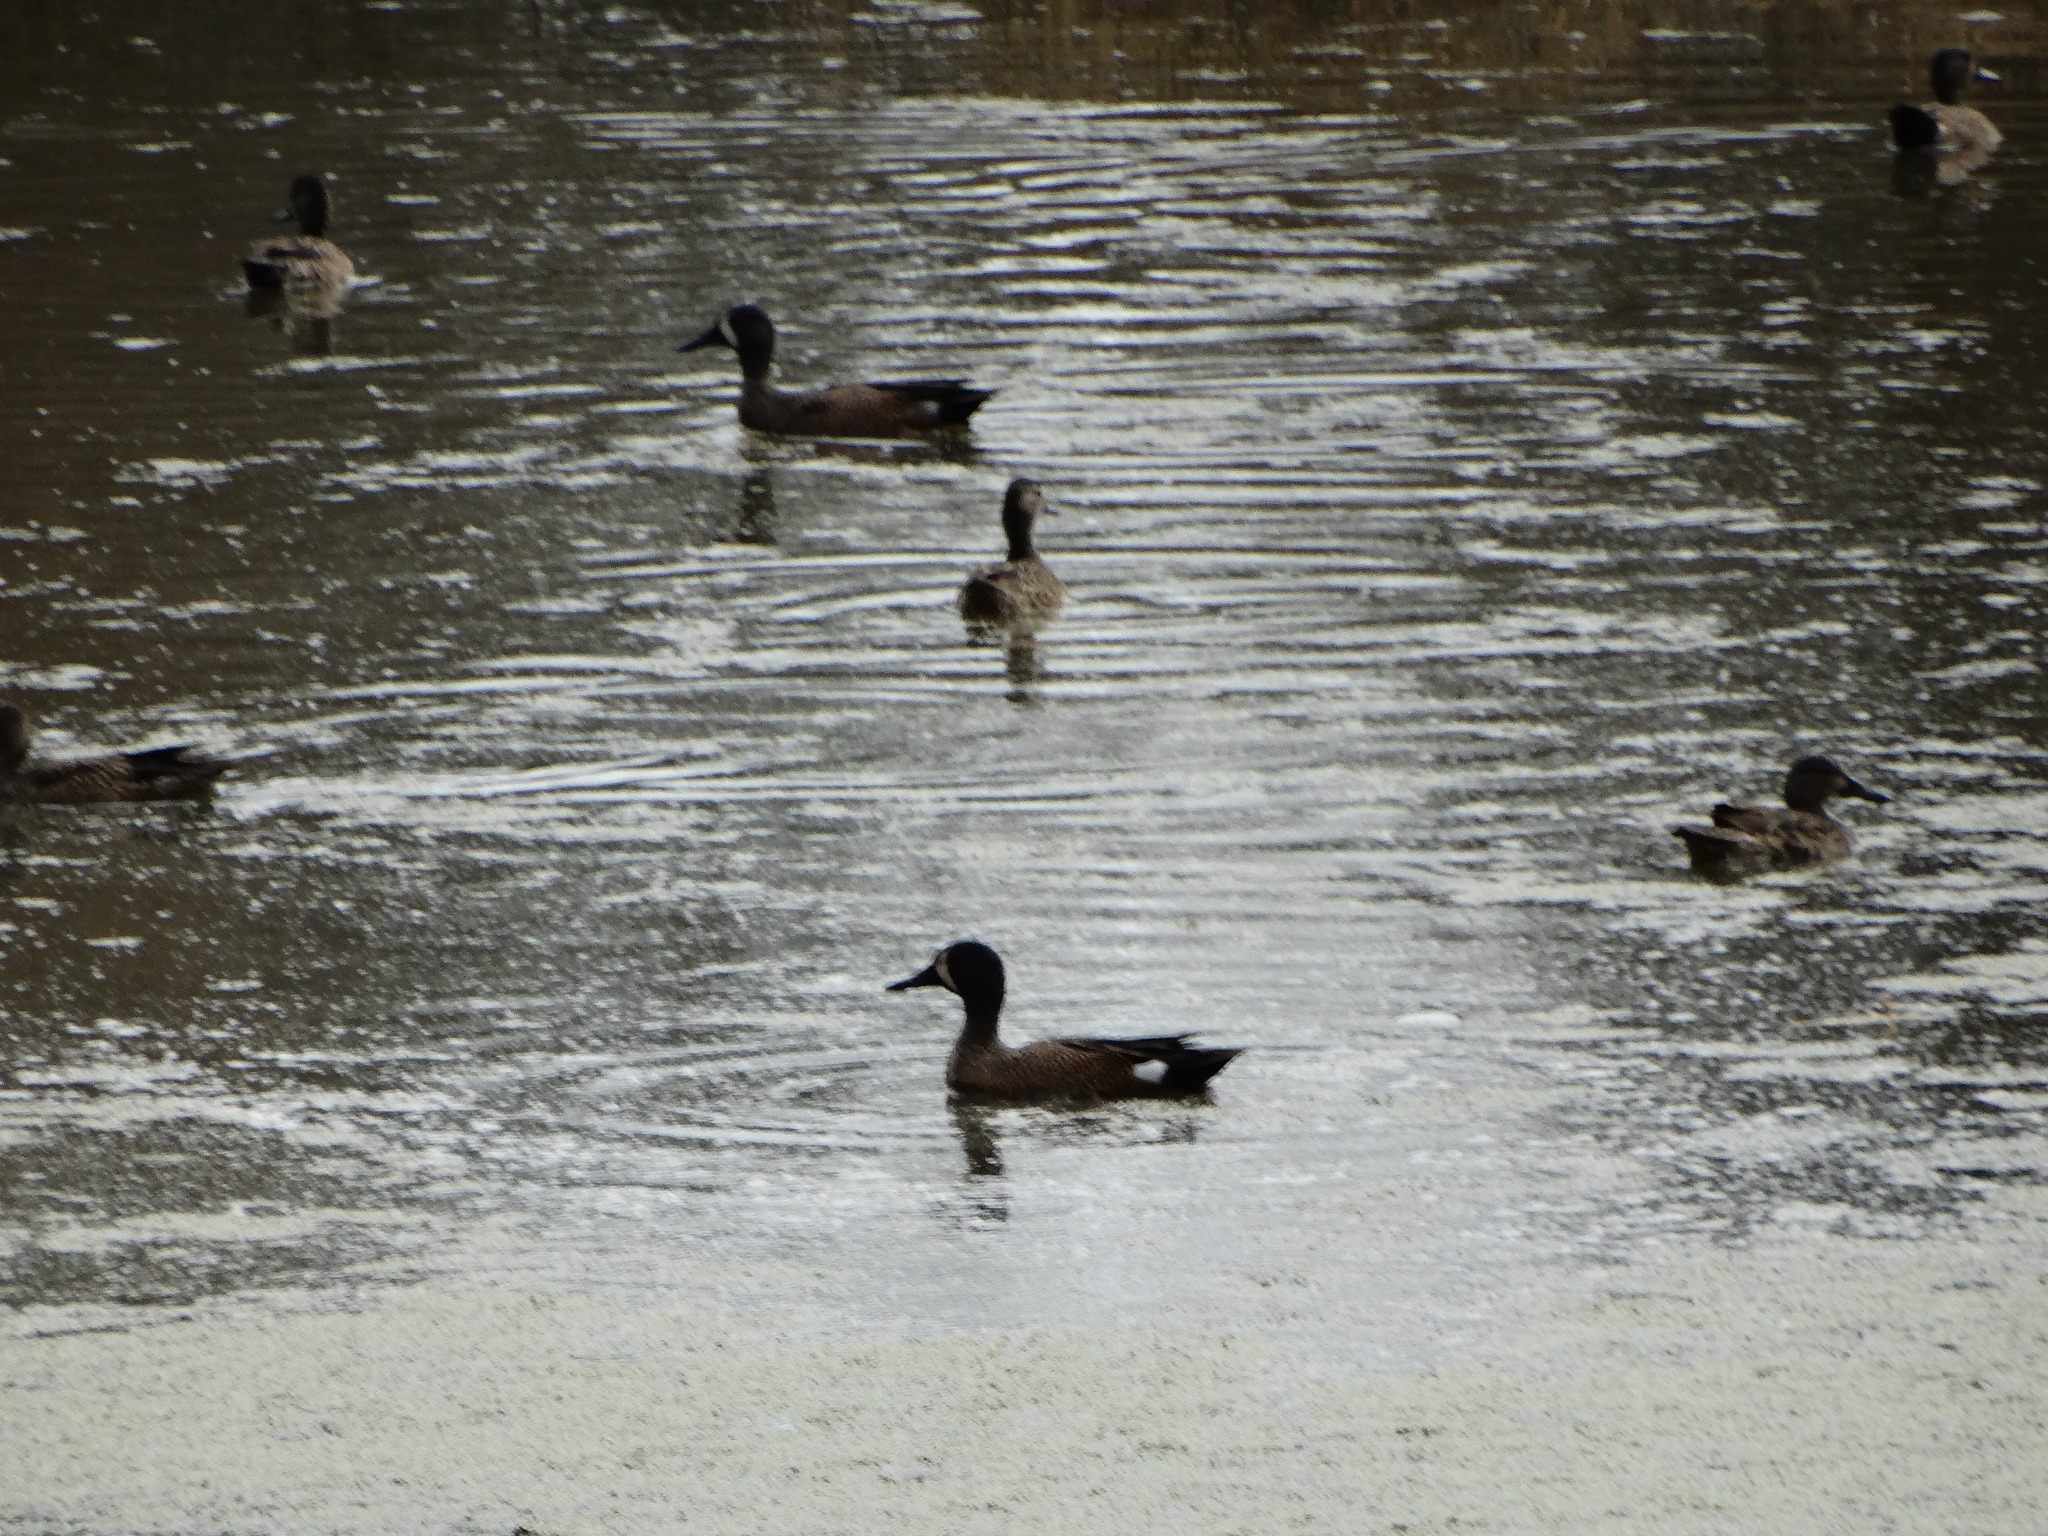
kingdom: Animalia
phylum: Chordata
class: Aves
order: Anseriformes
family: Anatidae
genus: Spatula
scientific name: Spatula discors
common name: Blue-winged teal
